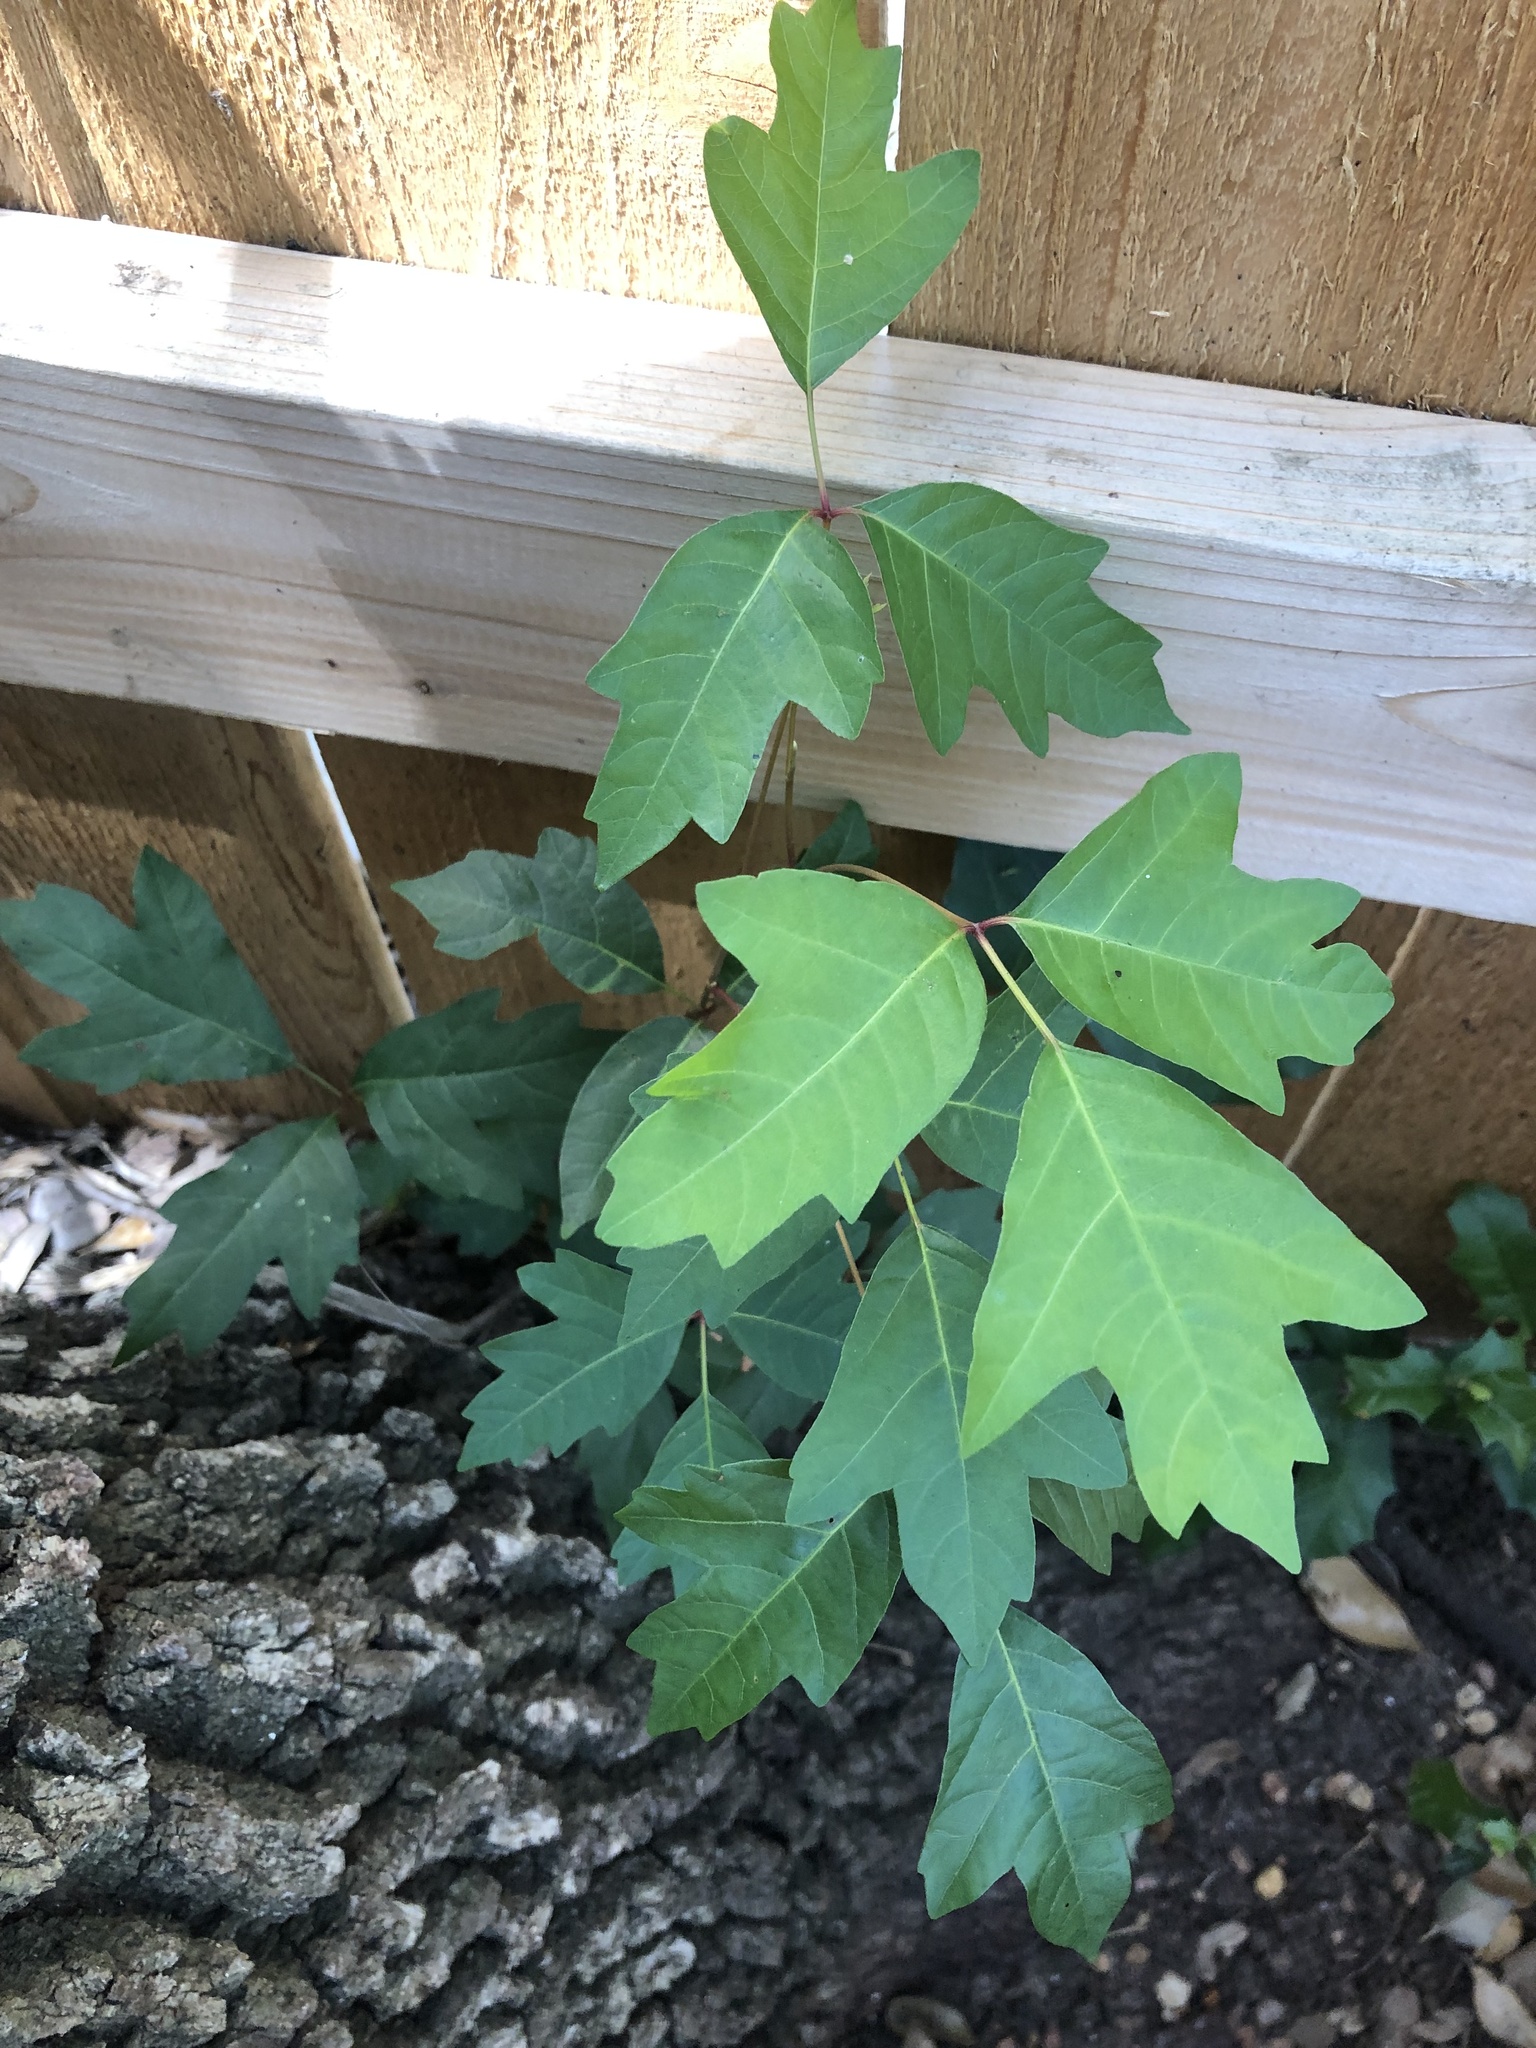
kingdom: Plantae
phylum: Tracheophyta
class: Magnoliopsida
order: Sapindales
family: Anacardiaceae
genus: Toxicodendron
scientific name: Toxicodendron radicans
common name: Poison ivy
